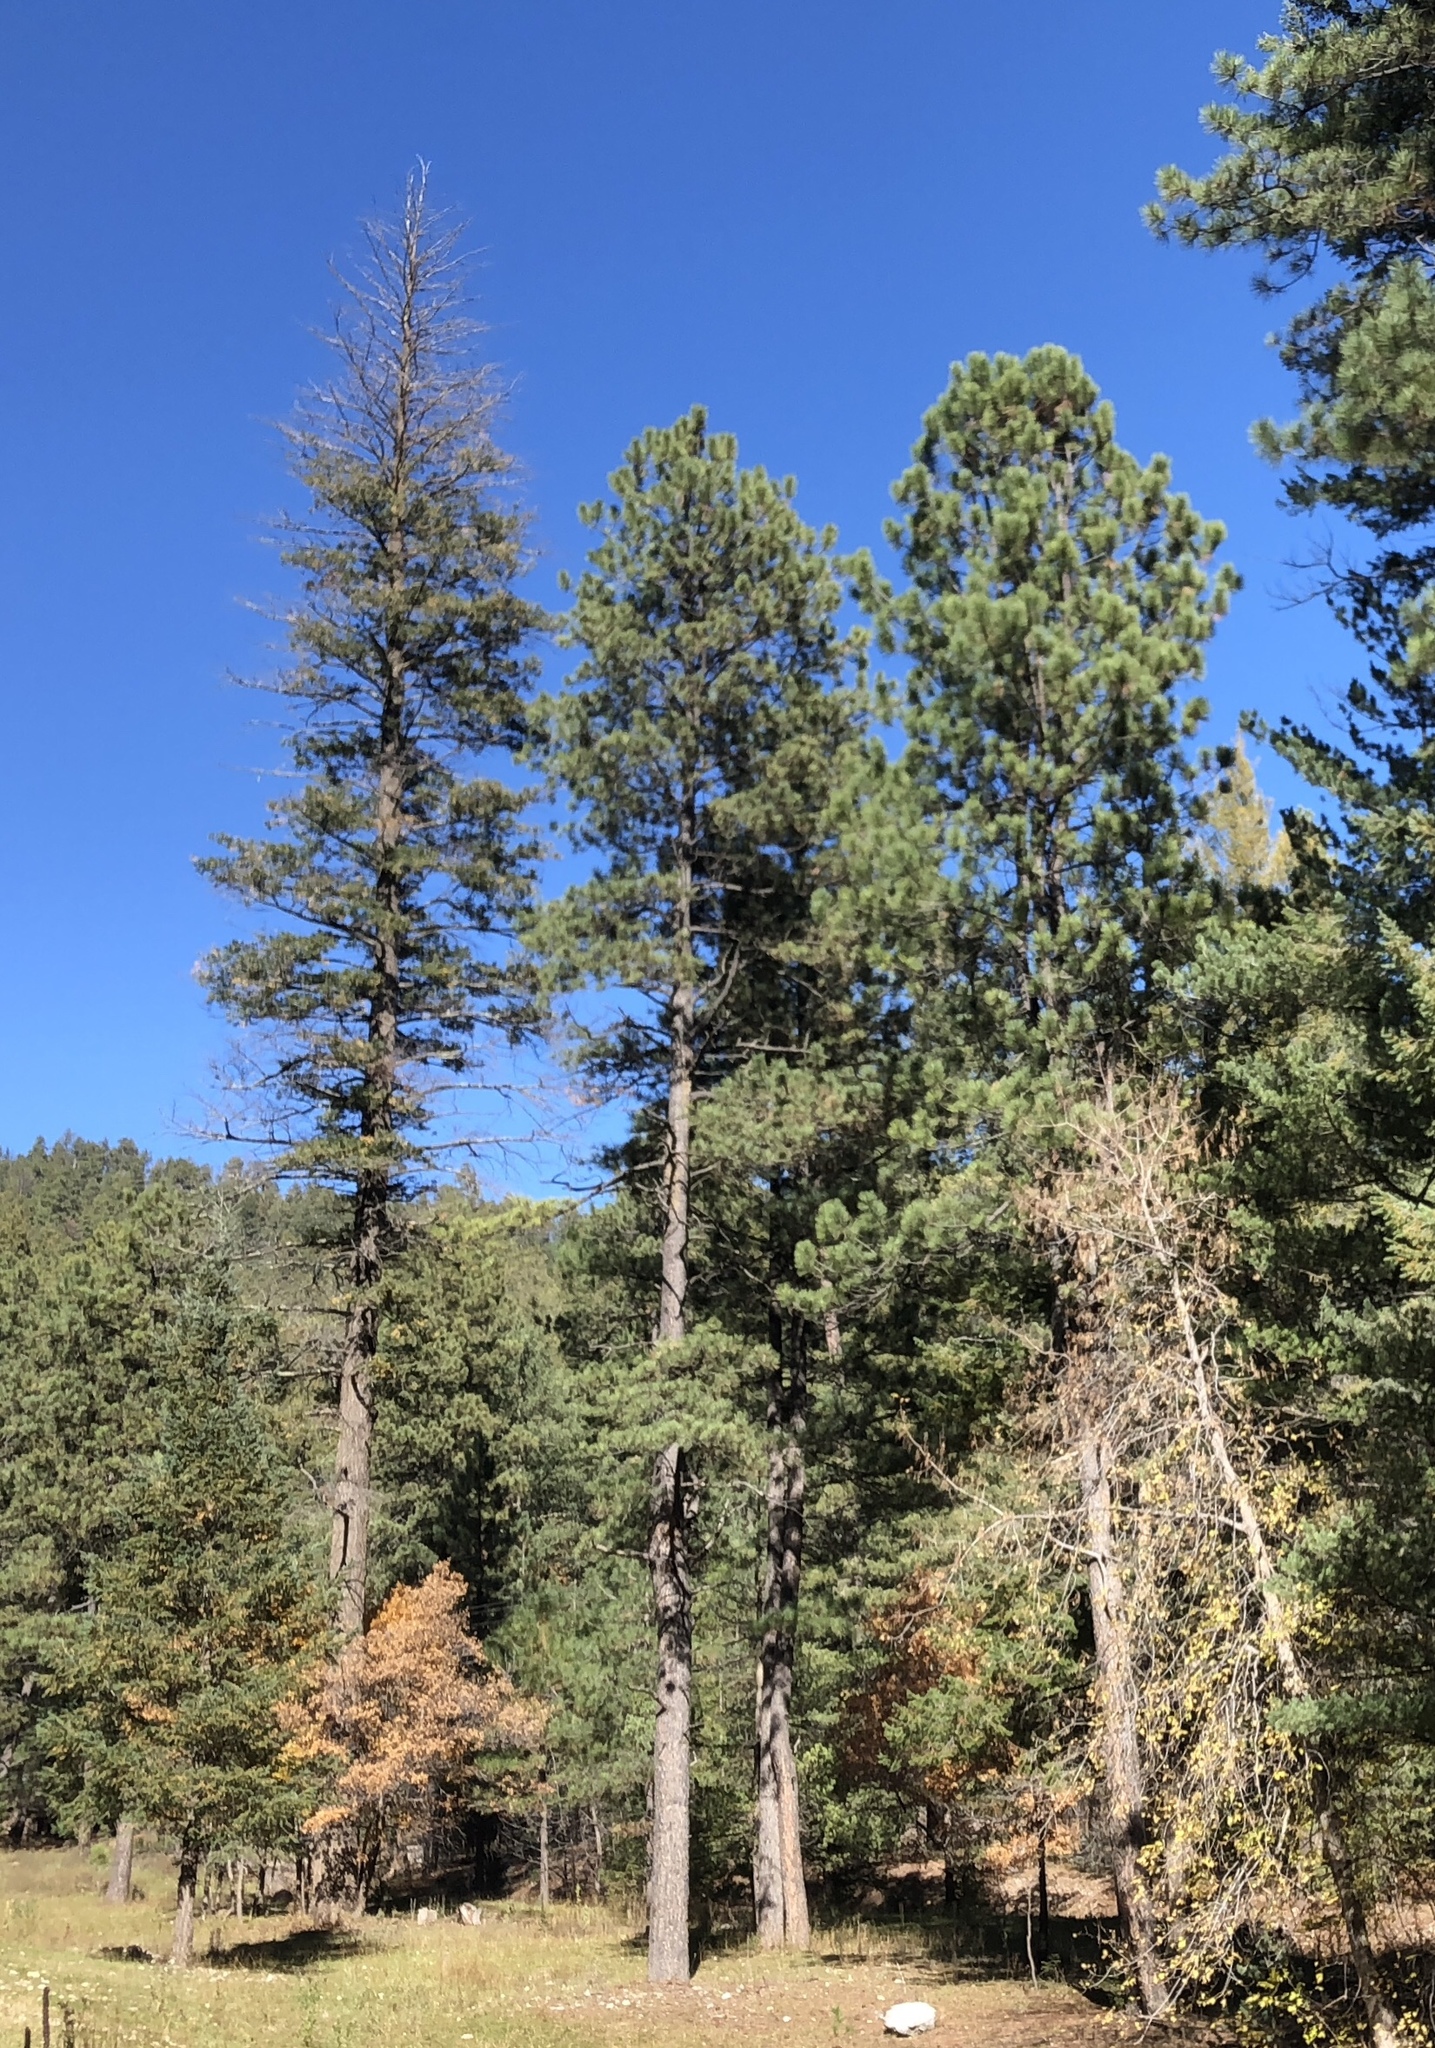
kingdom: Plantae
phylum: Tracheophyta
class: Pinopsida
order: Pinales
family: Pinaceae
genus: Pinus
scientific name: Pinus ponderosa
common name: Western yellow-pine
